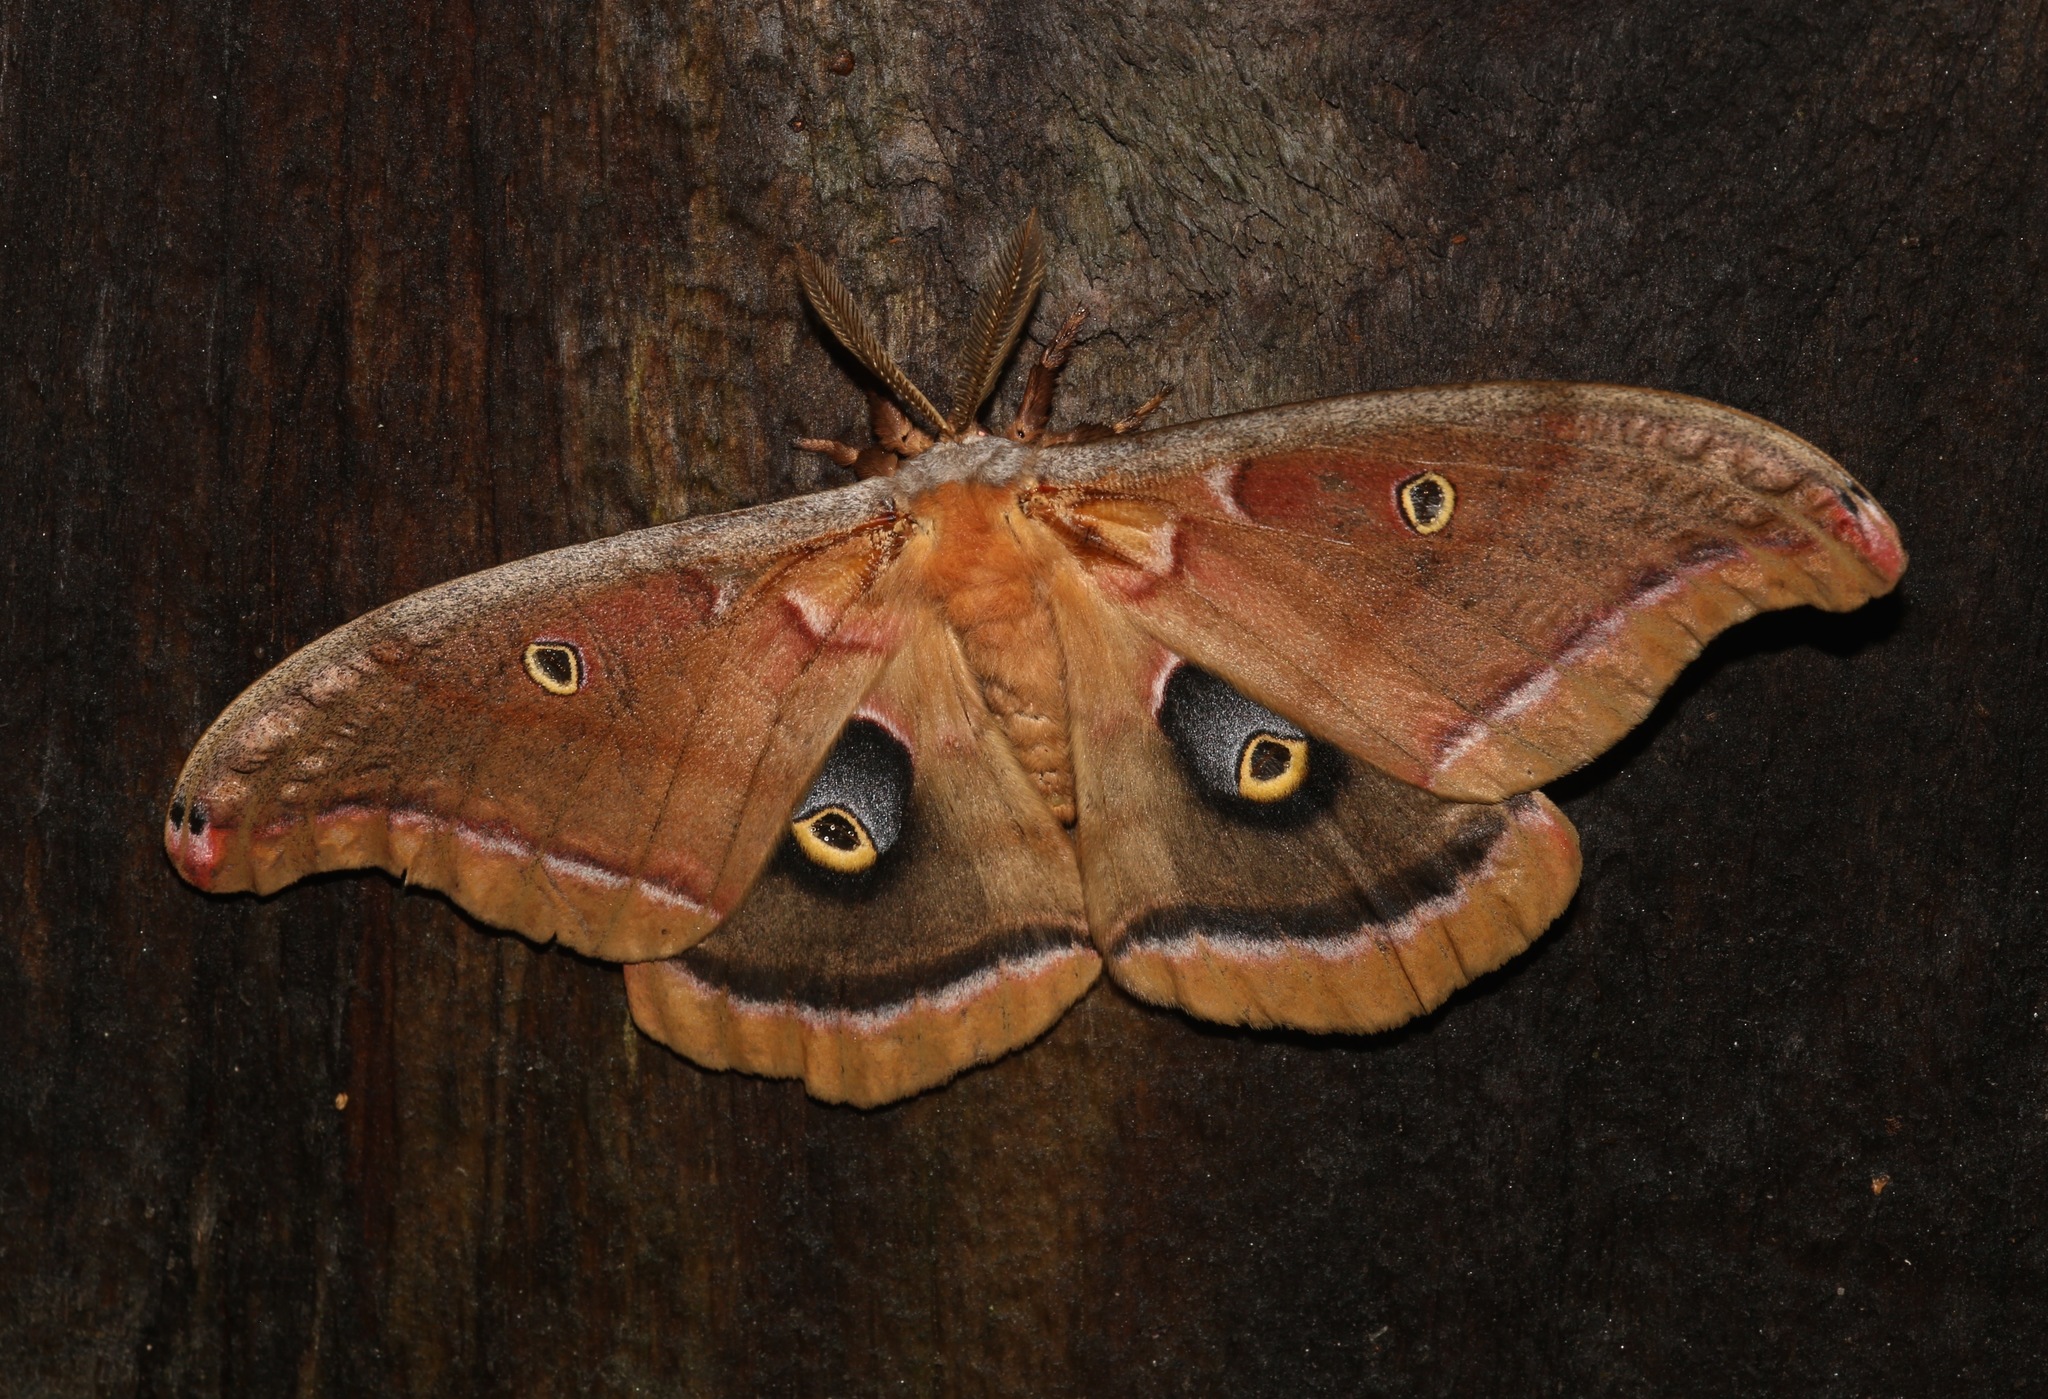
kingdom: Animalia
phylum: Arthropoda
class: Insecta
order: Lepidoptera
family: Saturniidae
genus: Antheraea
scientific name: Antheraea polyphemus
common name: Polyphemus moth
